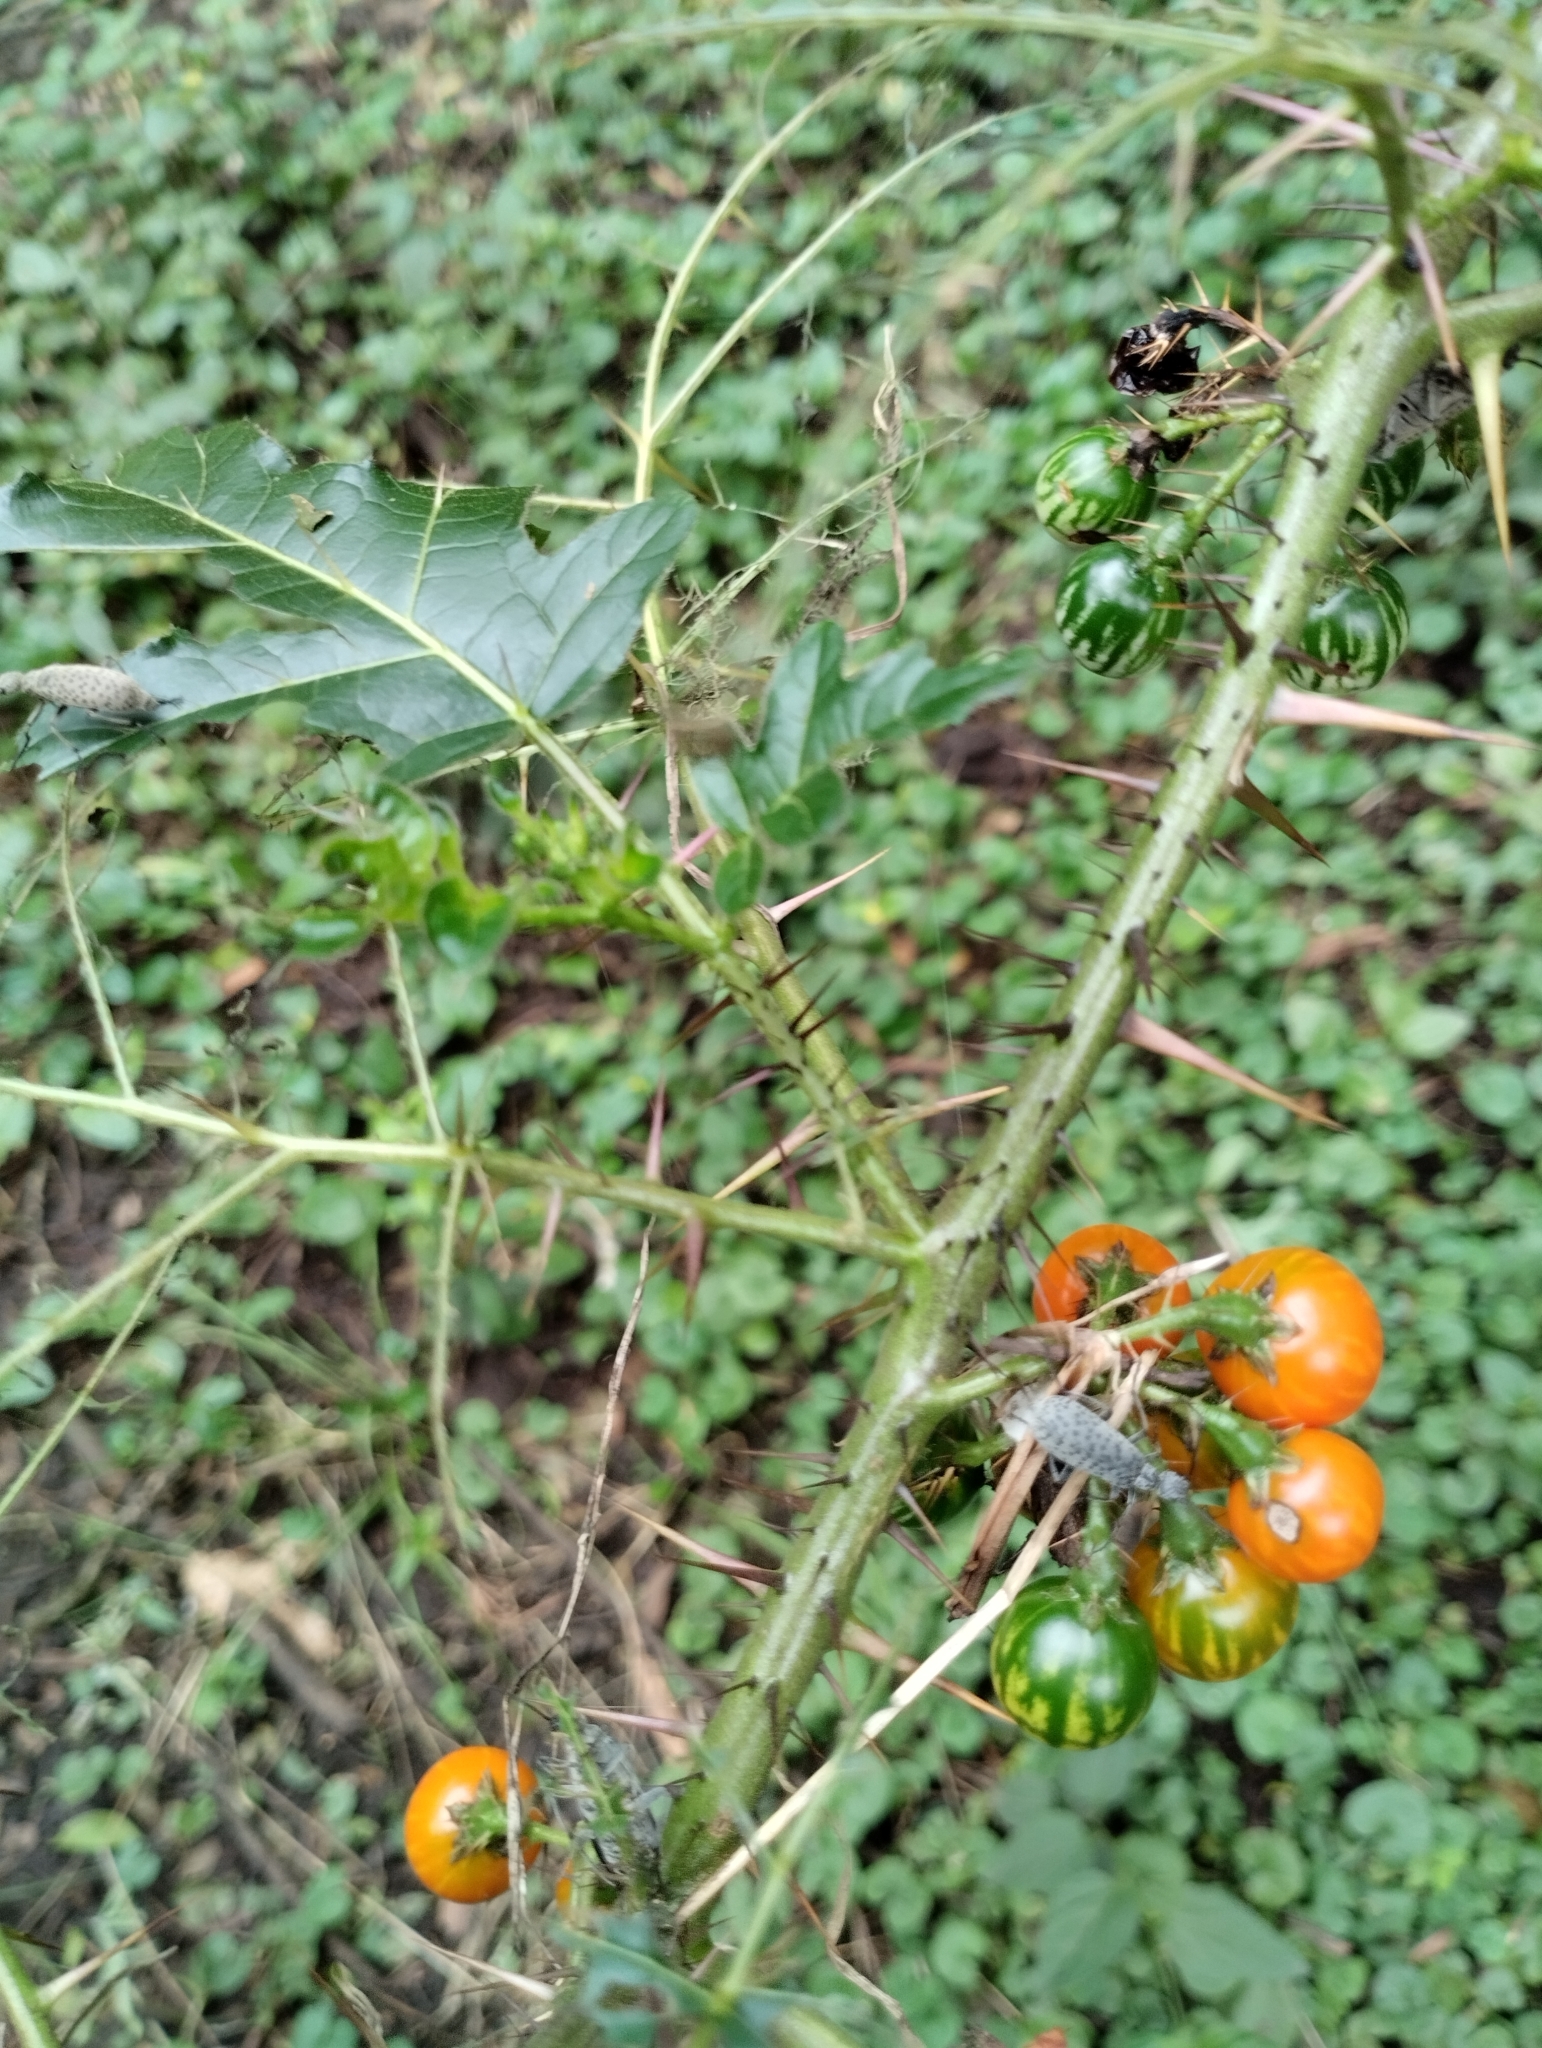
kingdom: Plantae
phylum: Tracheophyta
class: Magnoliopsida
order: Solanales
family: Solanaceae
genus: Solanum
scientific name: Solanum atropurpureum
